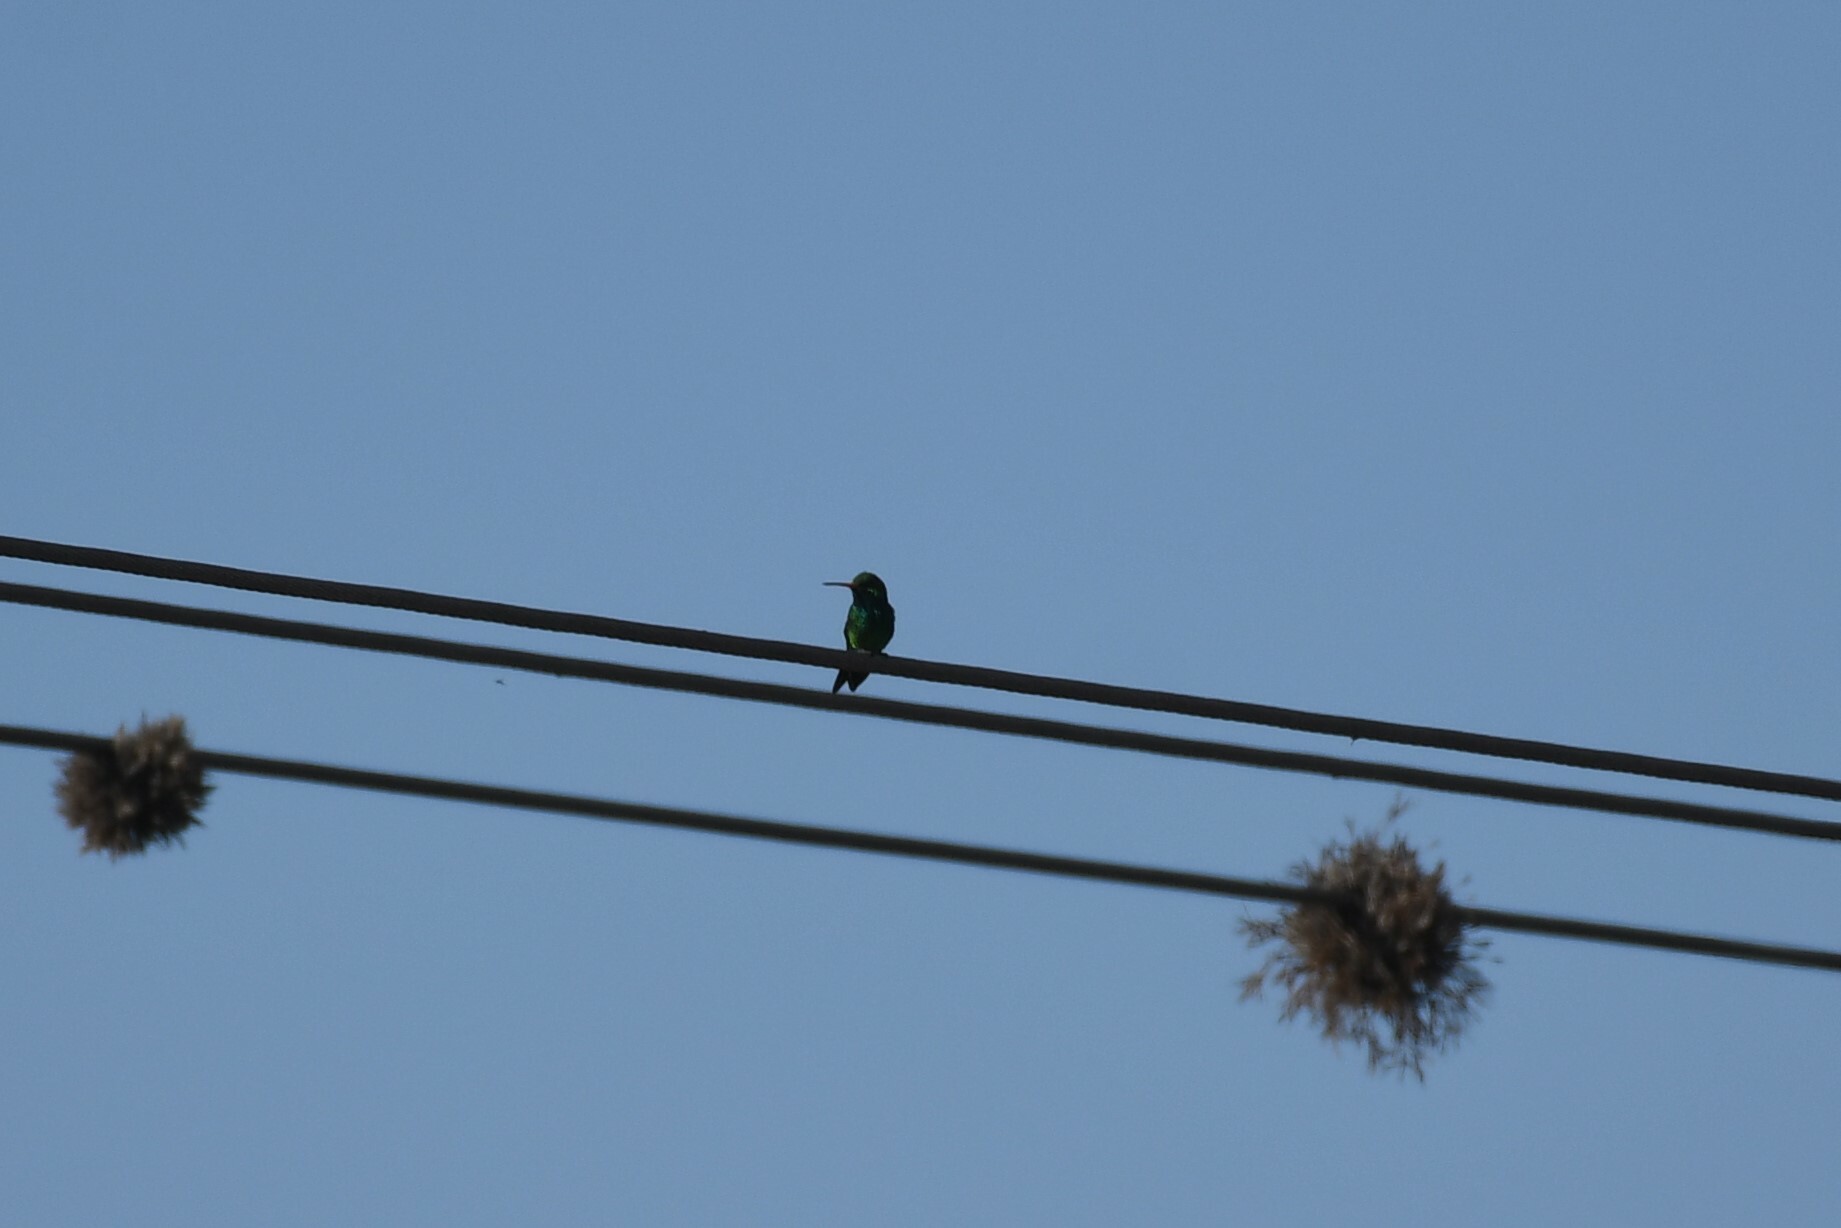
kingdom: Animalia
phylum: Chordata
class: Aves
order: Apodiformes
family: Trochilidae
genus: Chlorostilbon
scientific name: Chlorostilbon lucidus
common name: Glittering-bellied emerald
